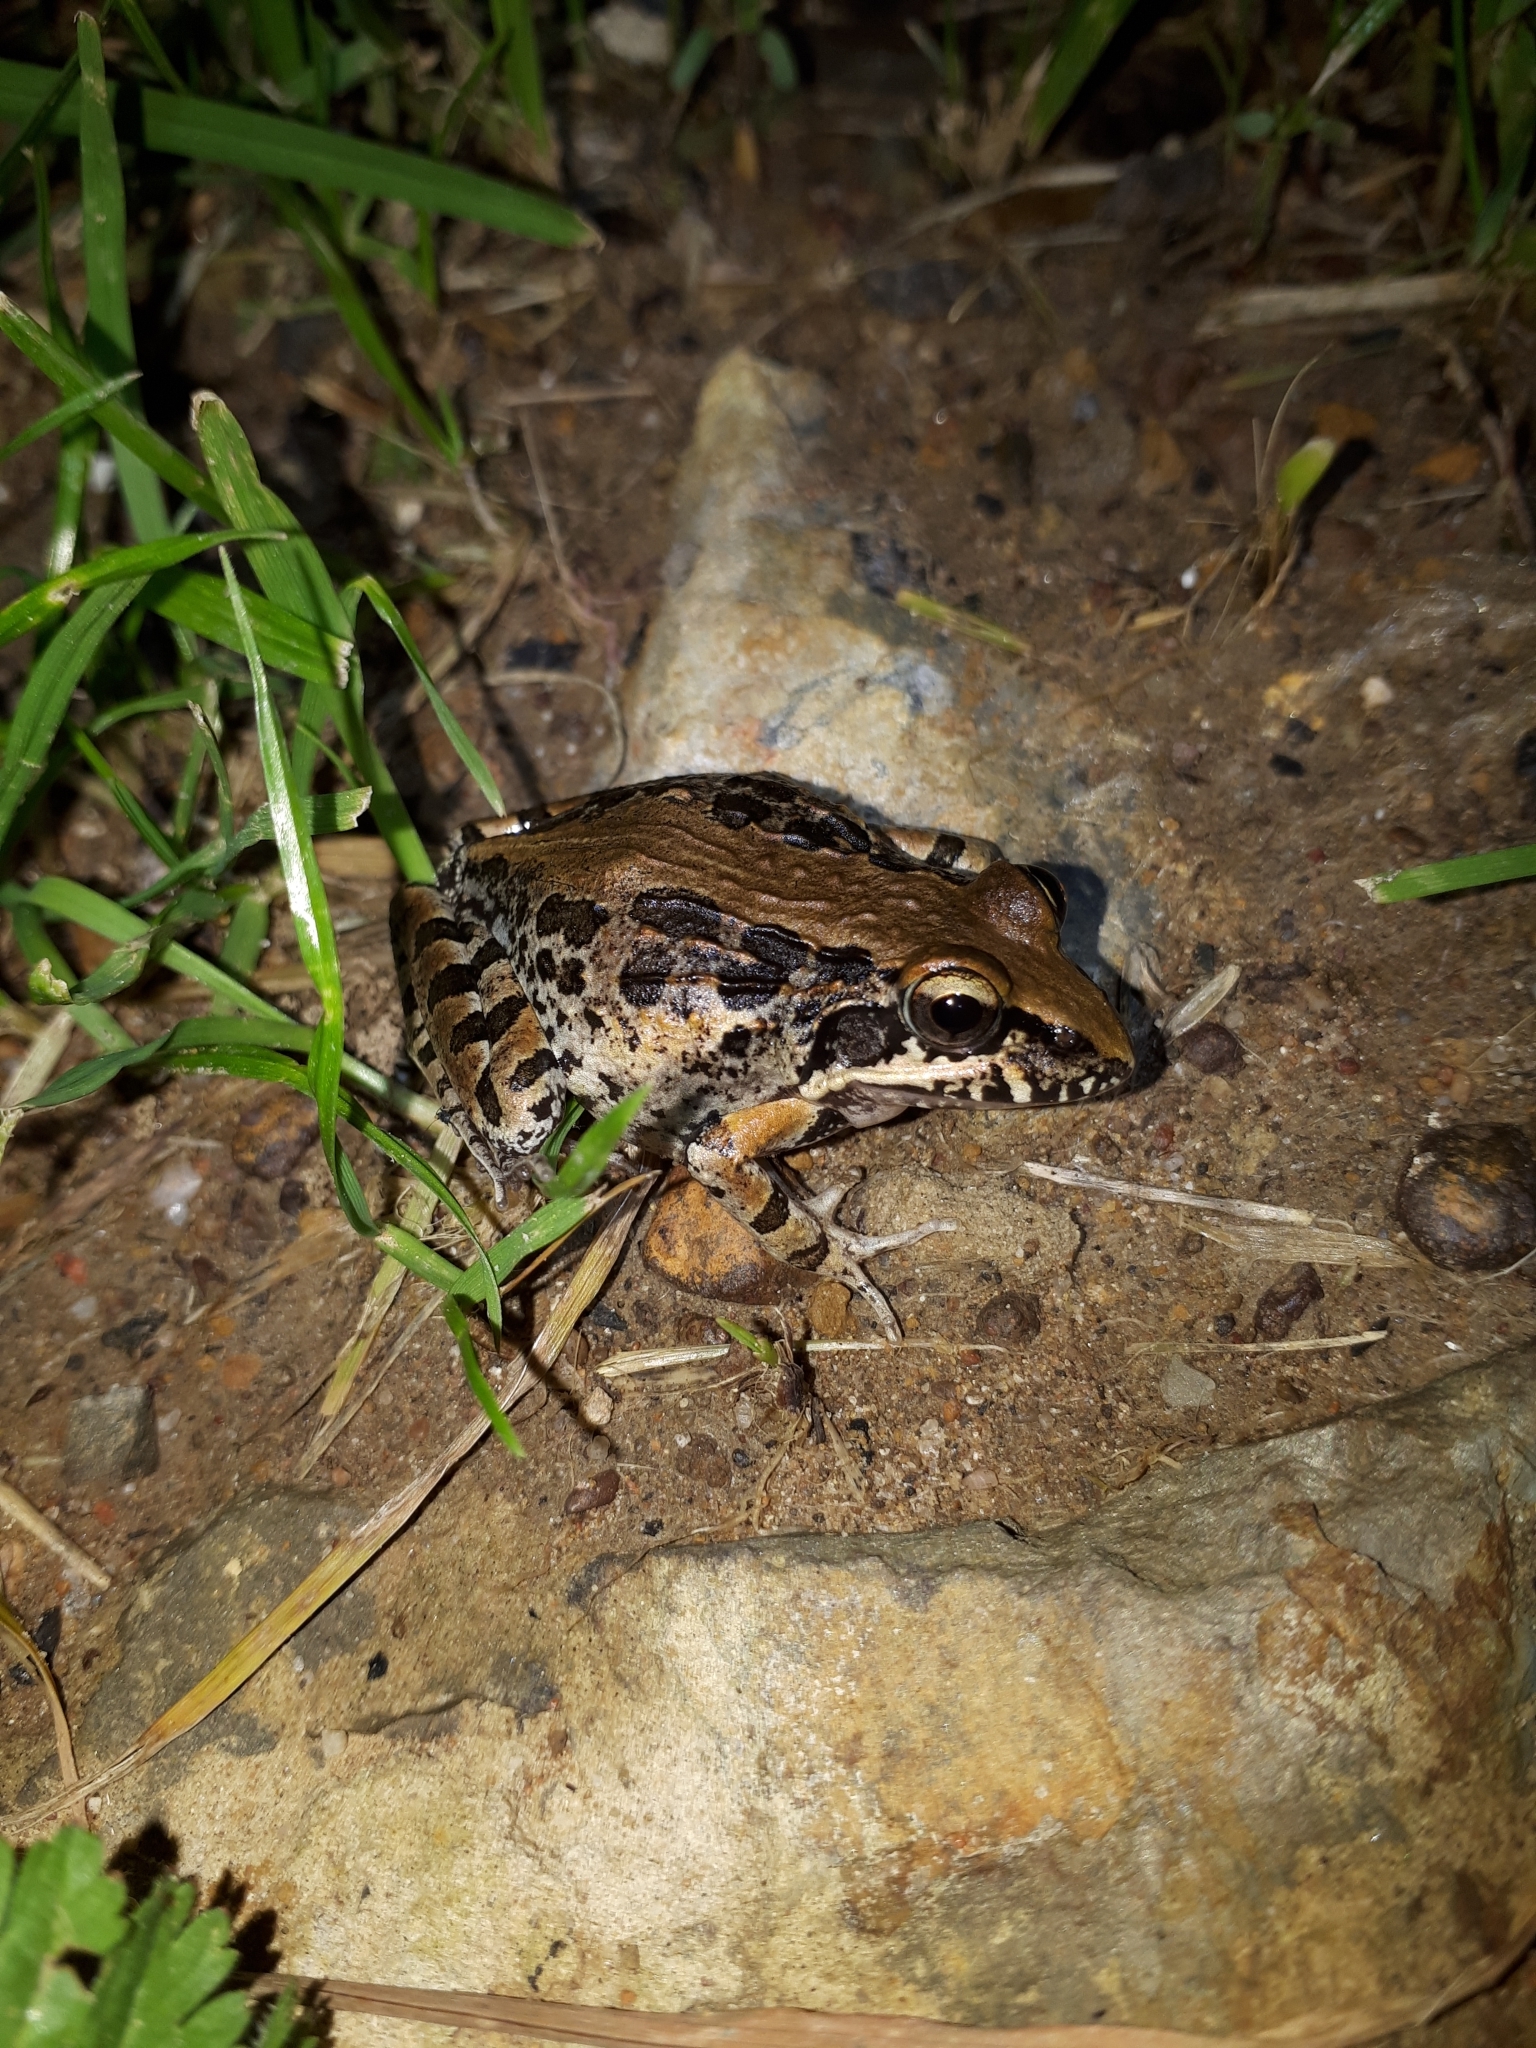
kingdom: Animalia
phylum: Chordata
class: Amphibia
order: Anura
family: Pyxicephalidae
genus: Strongylopus
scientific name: Strongylopus grayii
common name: Gray's stream frog
